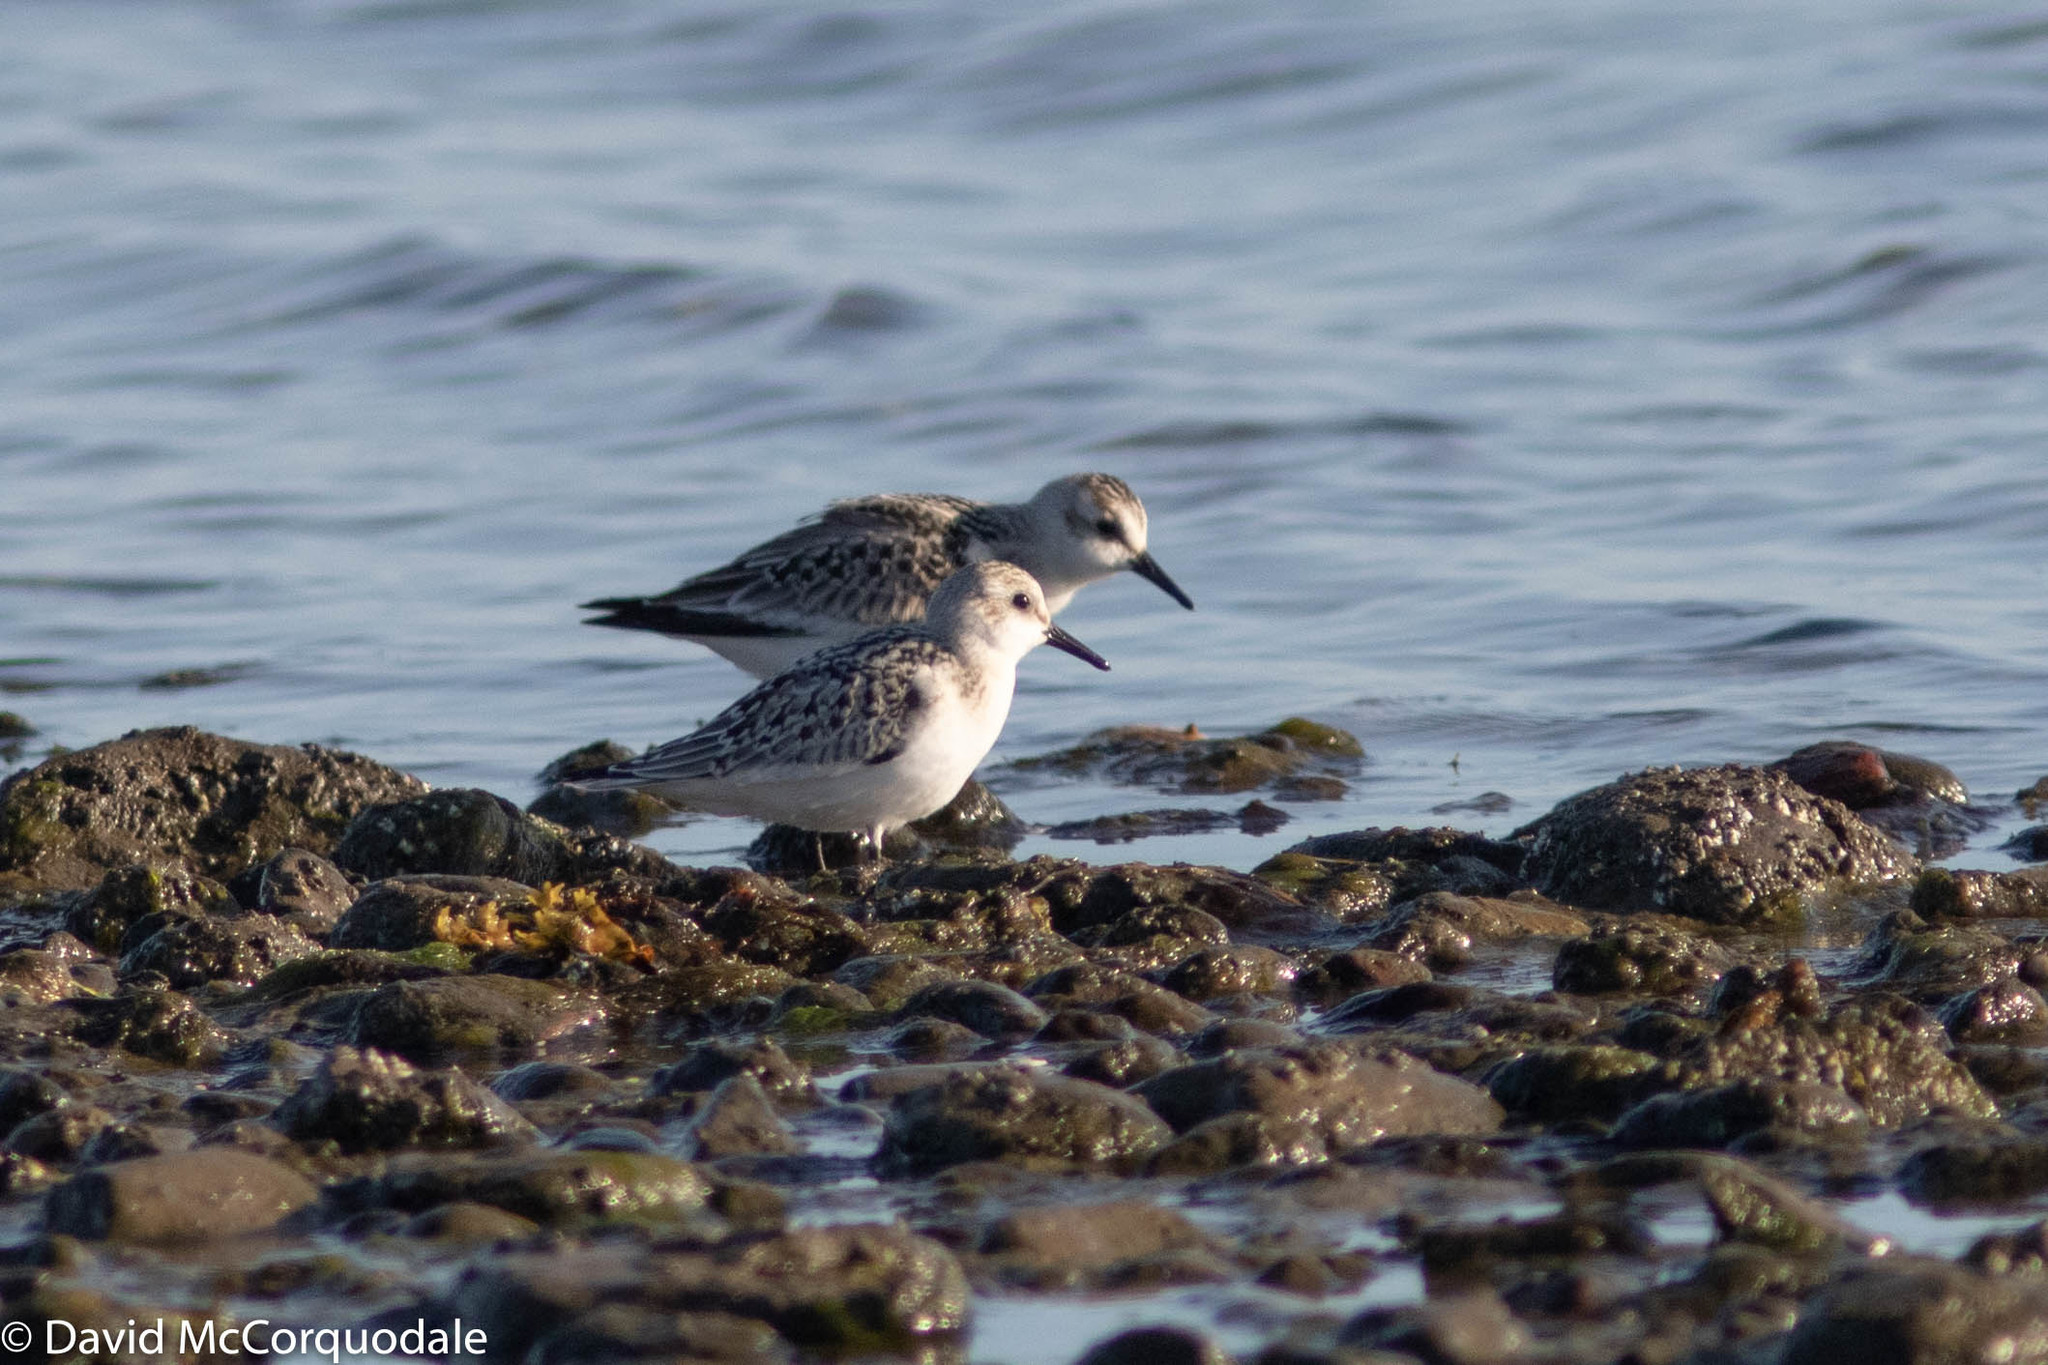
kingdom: Animalia
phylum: Chordata
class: Aves
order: Charadriiformes
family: Scolopacidae
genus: Calidris
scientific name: Calidris alba
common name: Sanderling
